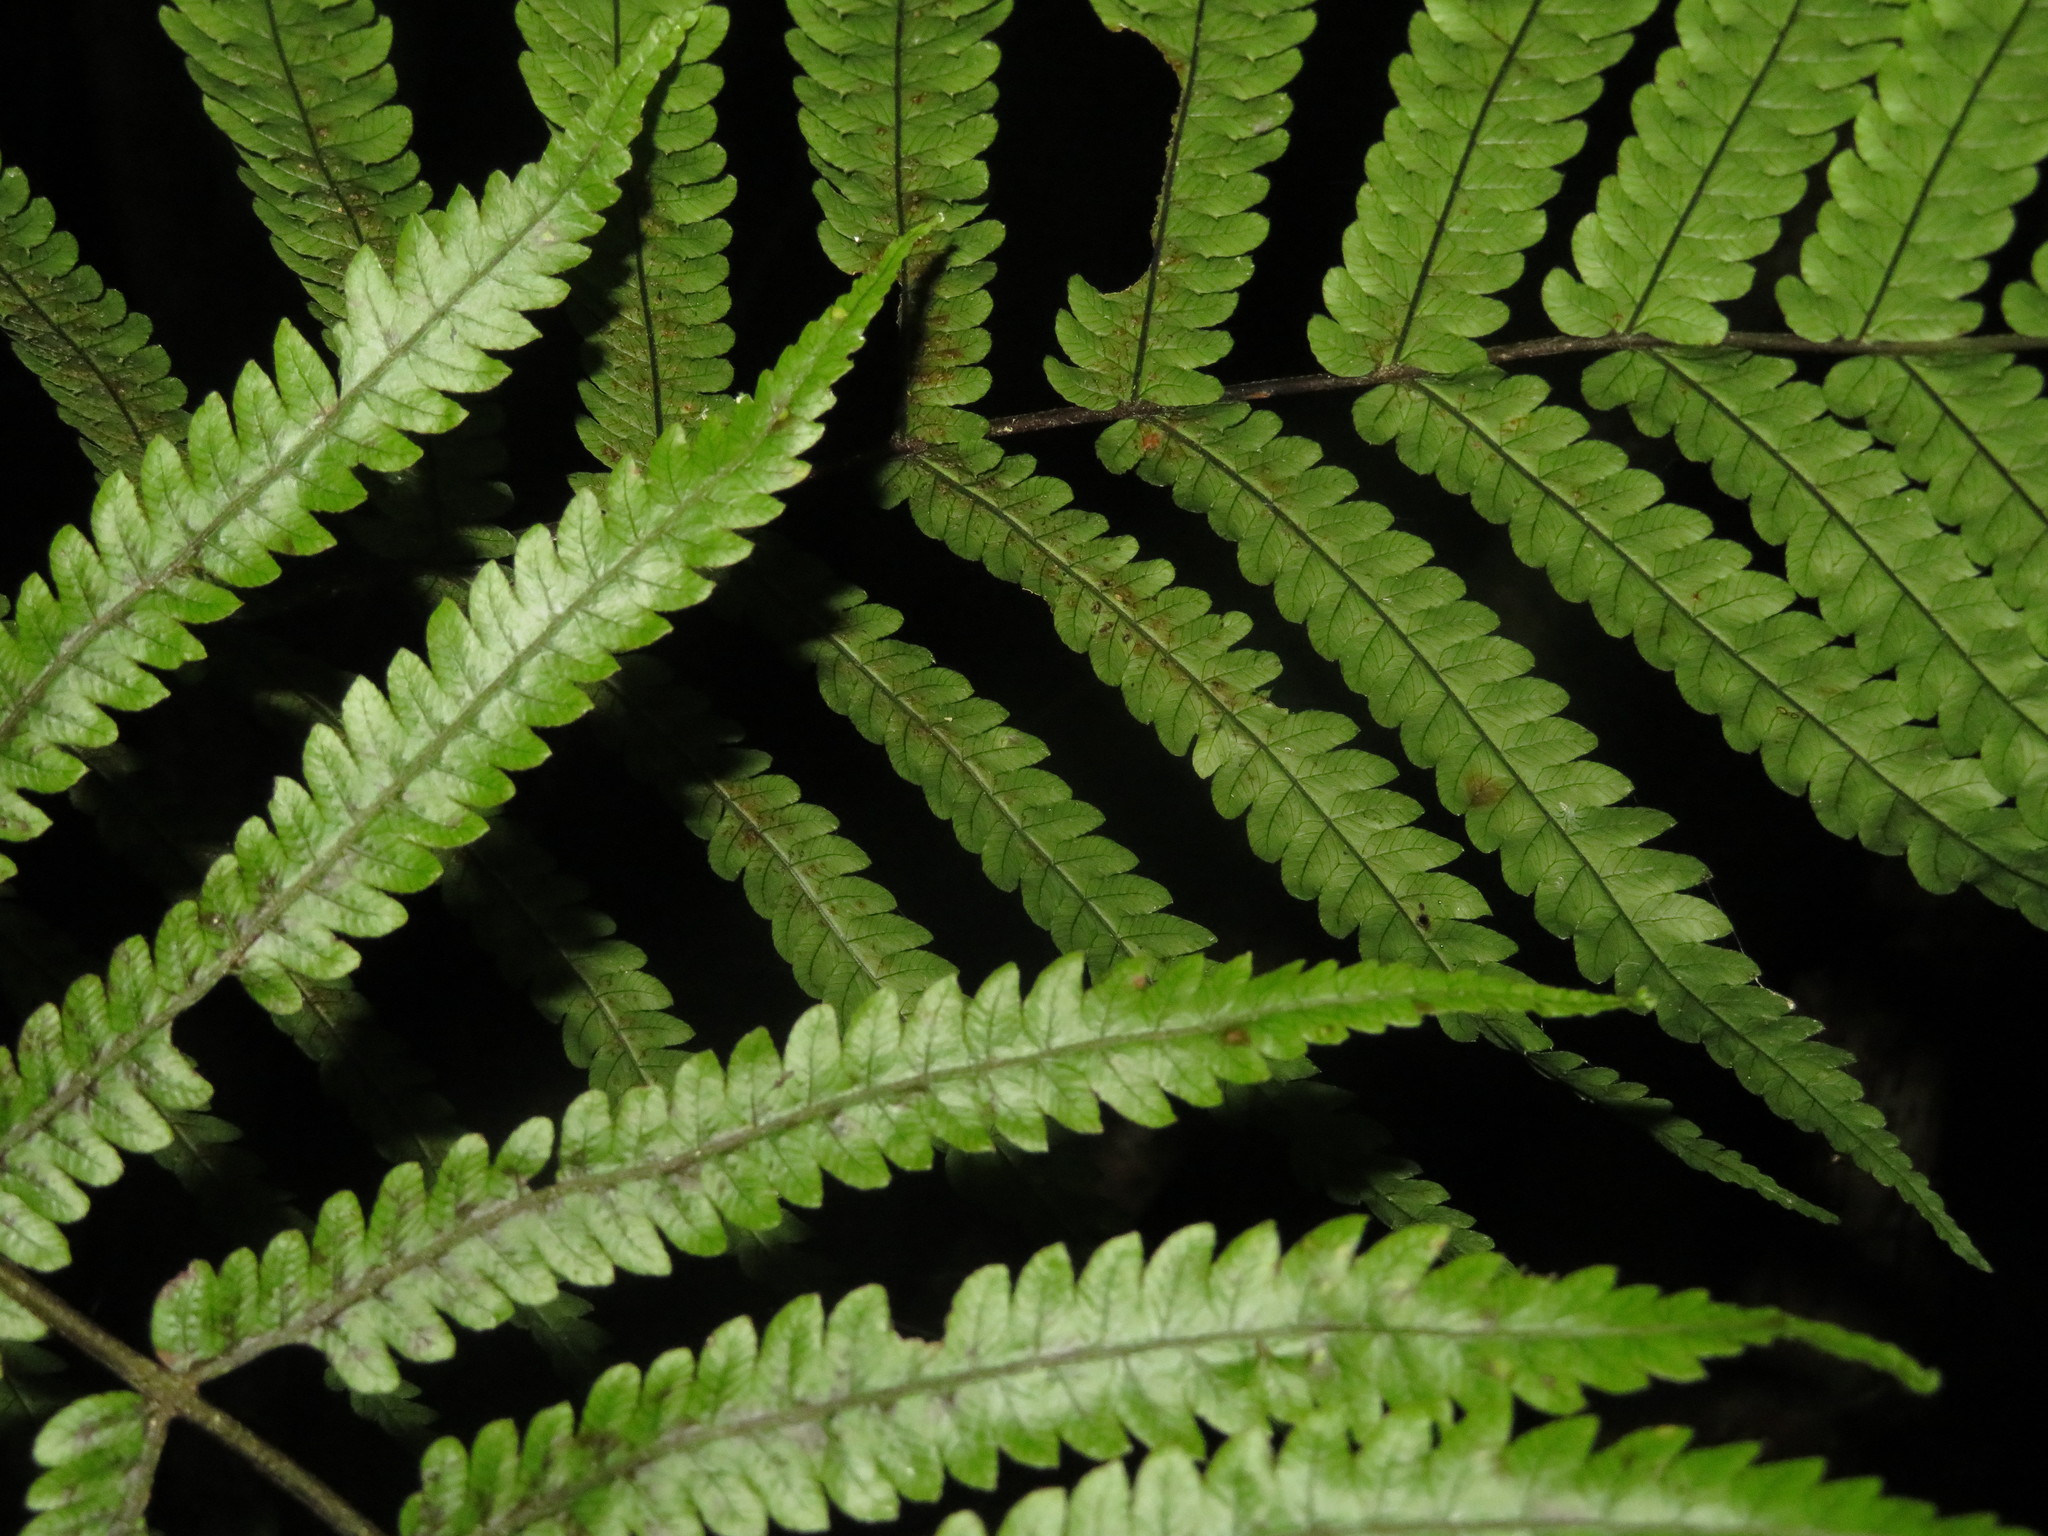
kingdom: Plantae
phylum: Tracheophyta
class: Polypodiopsida
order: Polypodiales
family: Thelypteridaceae
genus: Pakau
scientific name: Pakau pennigera
